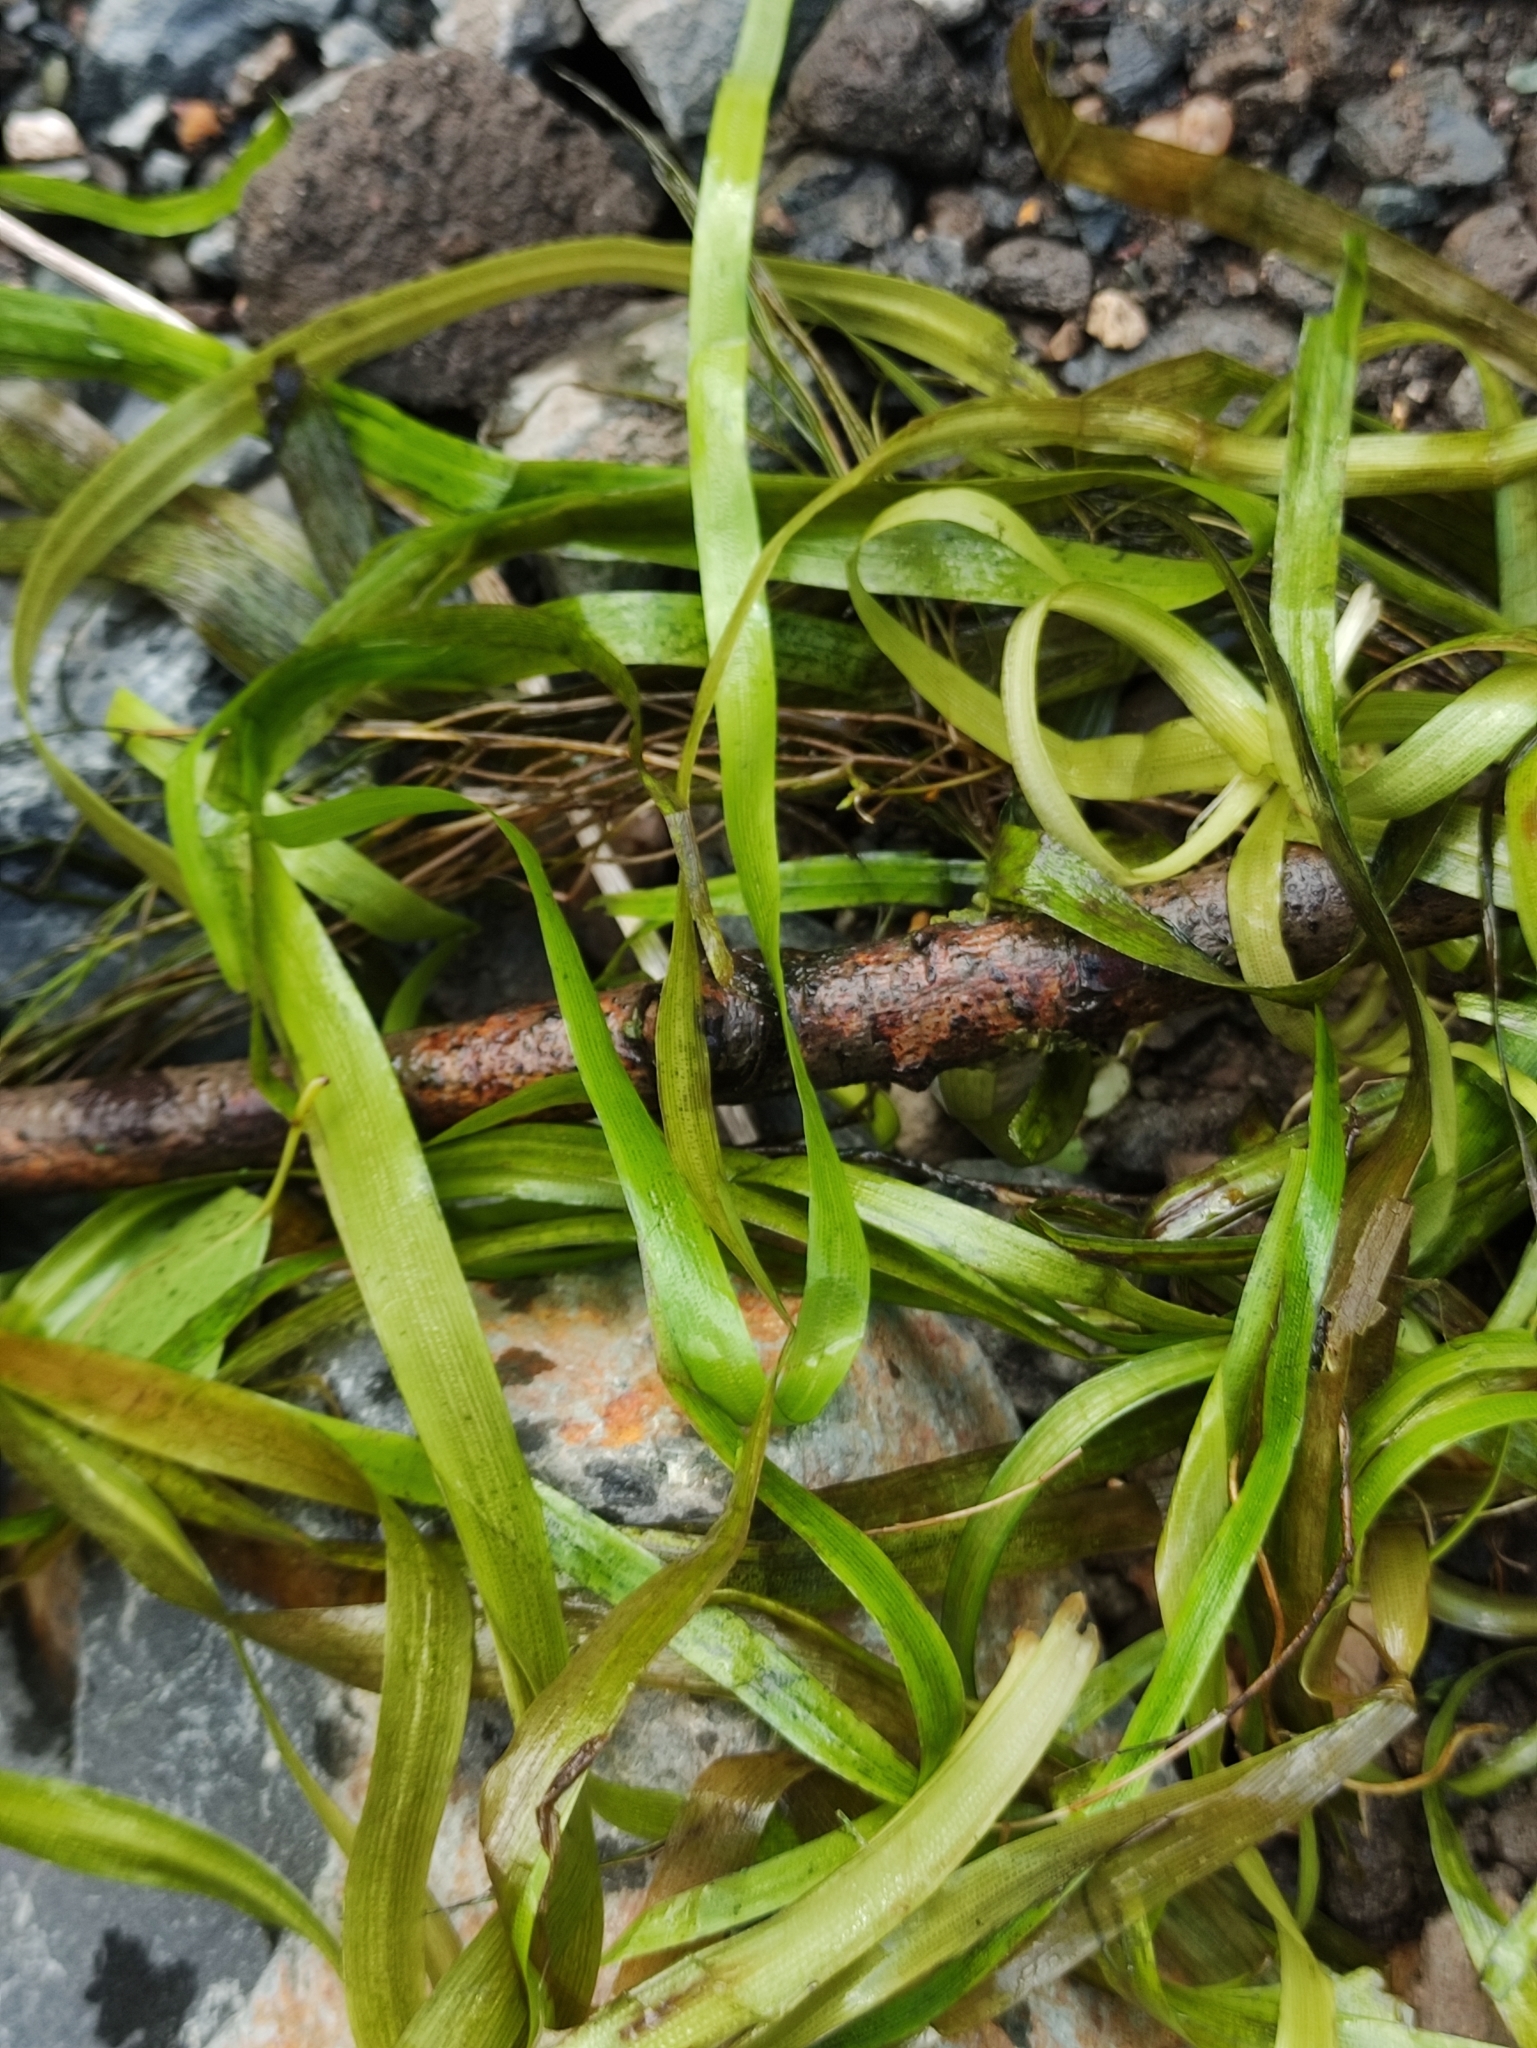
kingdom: Plantae
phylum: Tracheophyta
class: Liliopsida
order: Alismatales
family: Hydrocharitaceae
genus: Vallisneria
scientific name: Vallisneria spiralis
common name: Tapegrass
